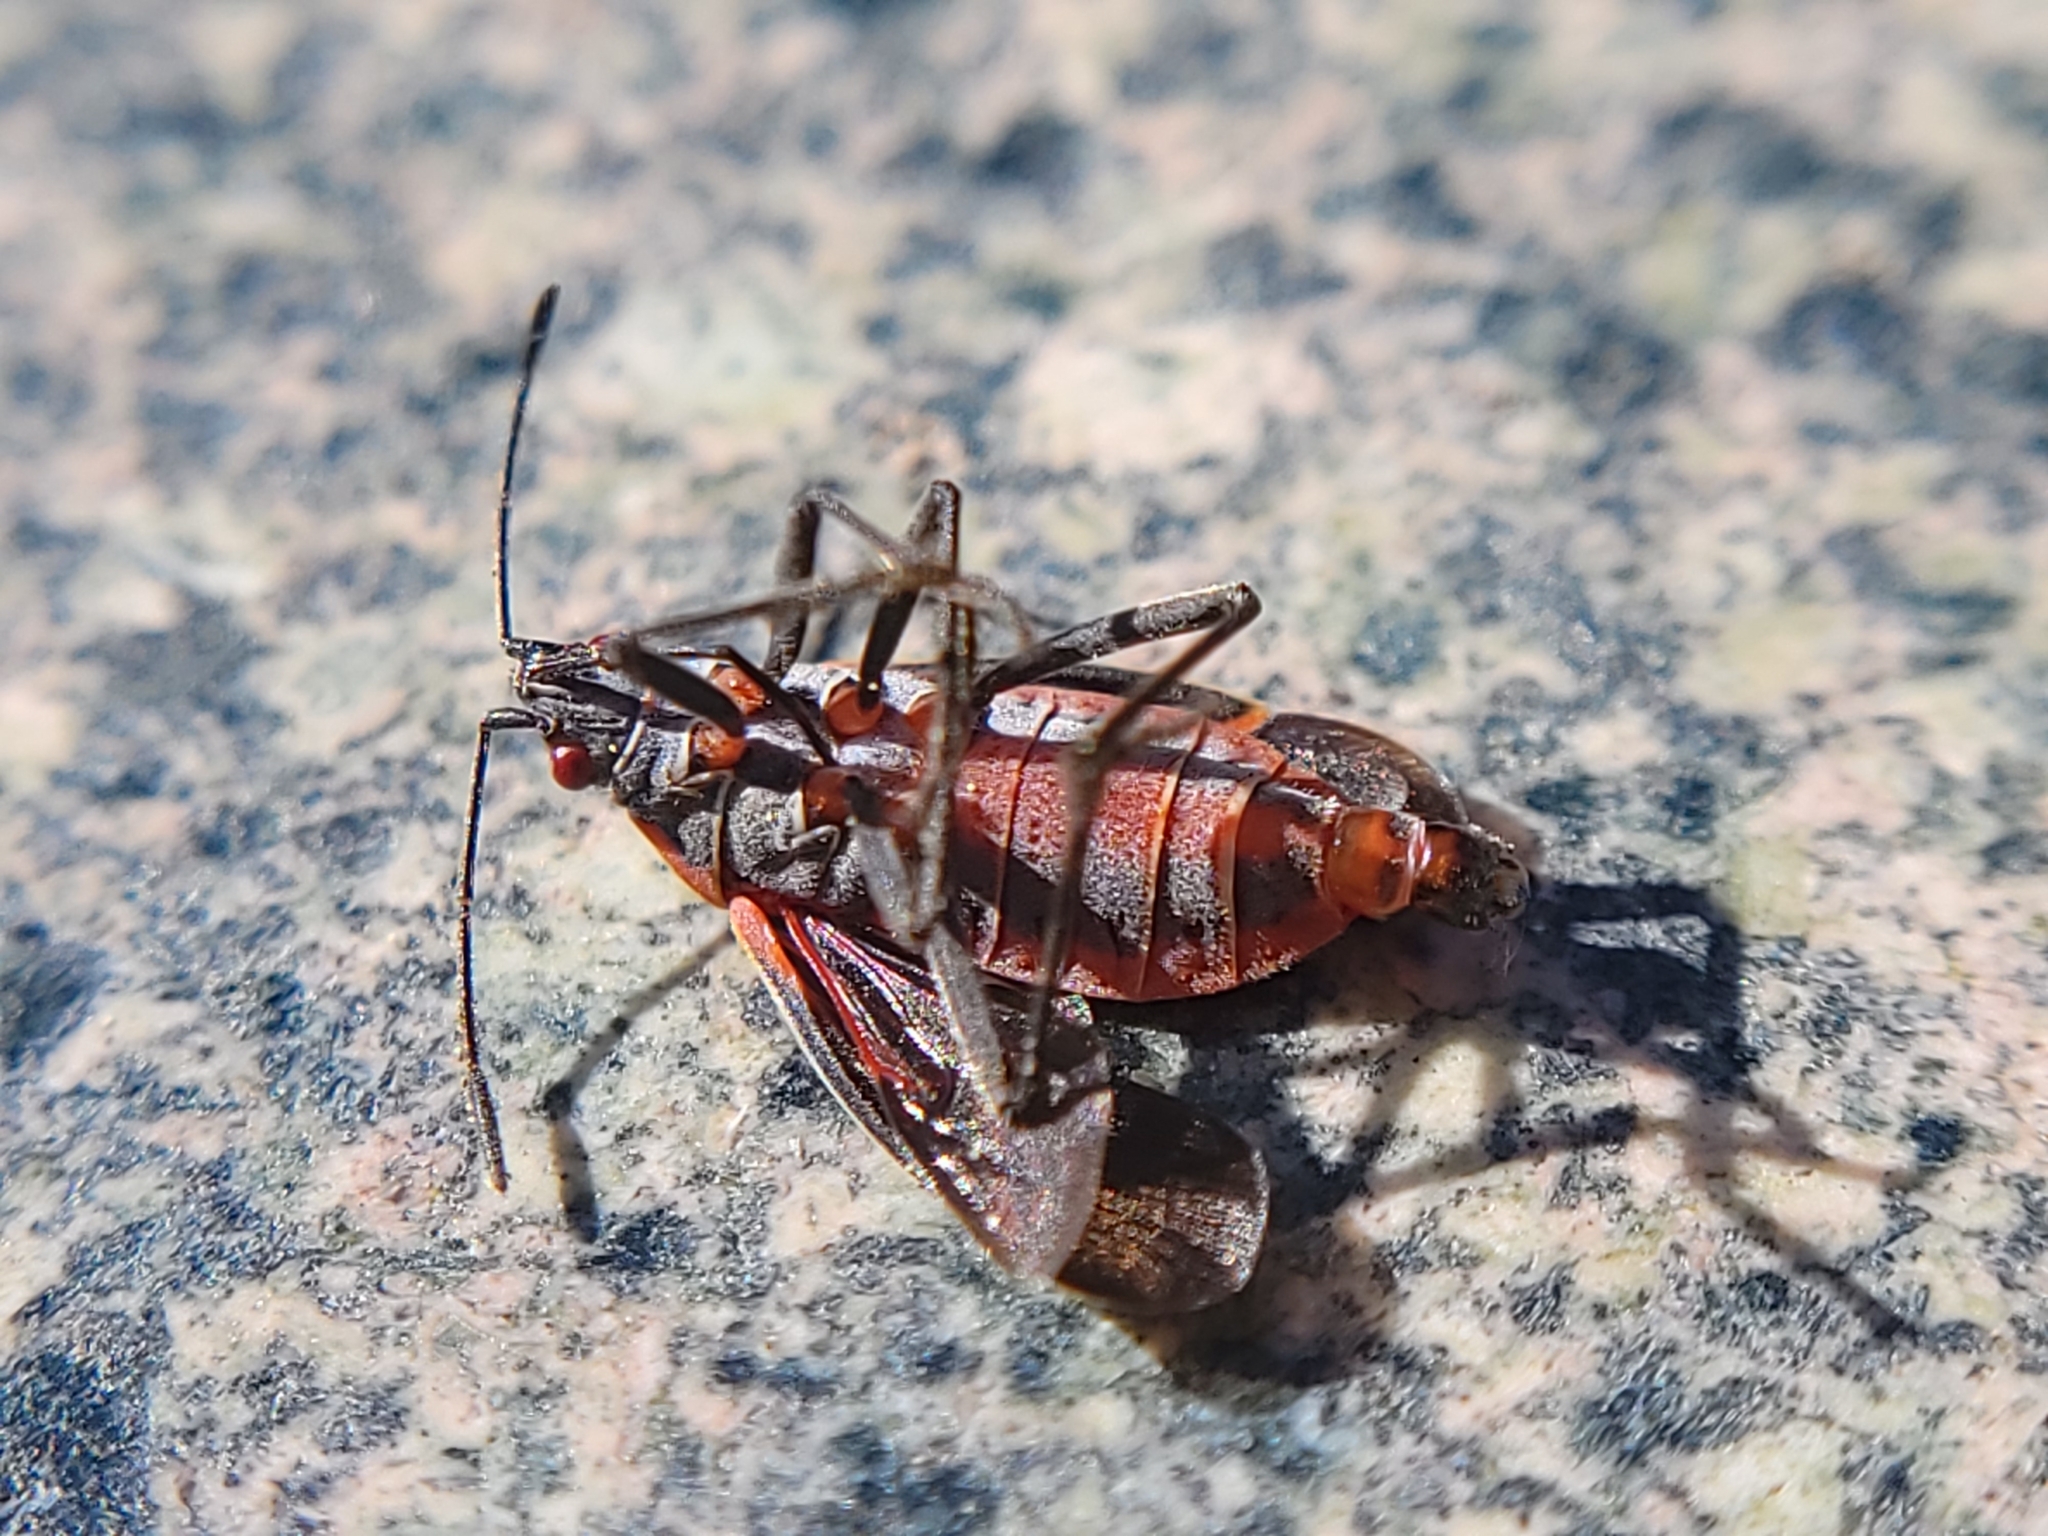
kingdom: Animalia
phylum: Arthropoda
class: Insecta
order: Hemiptera
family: Rhopalidae
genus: Boisea
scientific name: Boisea rubrolineata
